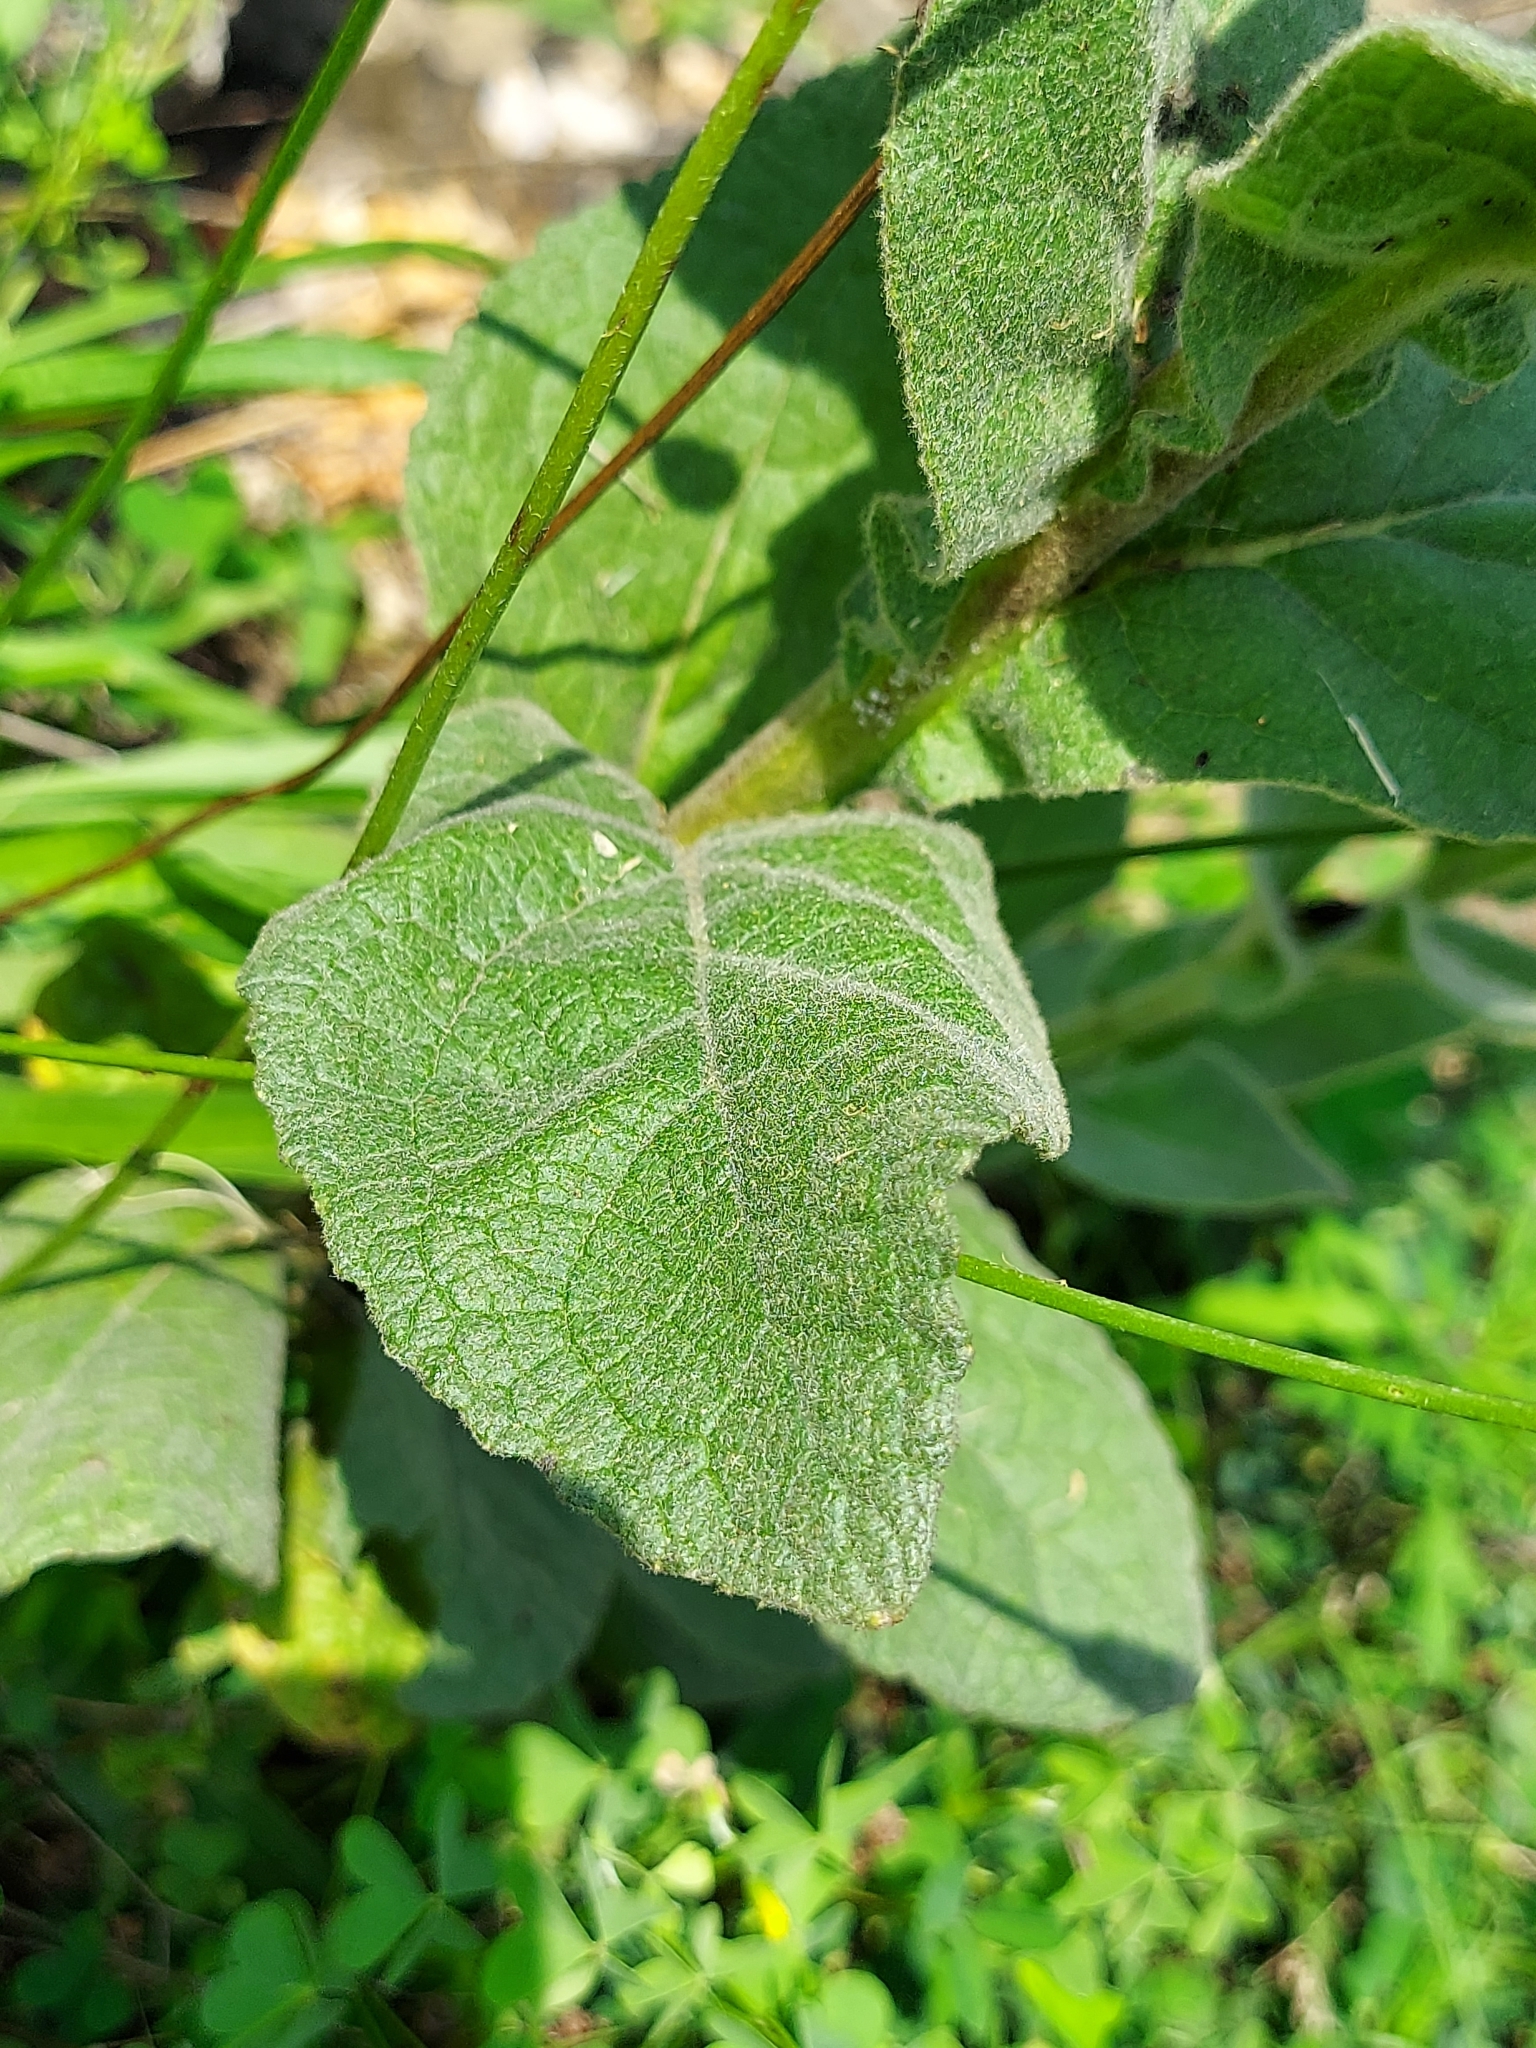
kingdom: Plantae
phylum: Tracheophyta
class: Magnoliopsida
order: Lamiales
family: Scrophulariaceae
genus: Verbascum
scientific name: Verbascum thapsus
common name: Common mullein
